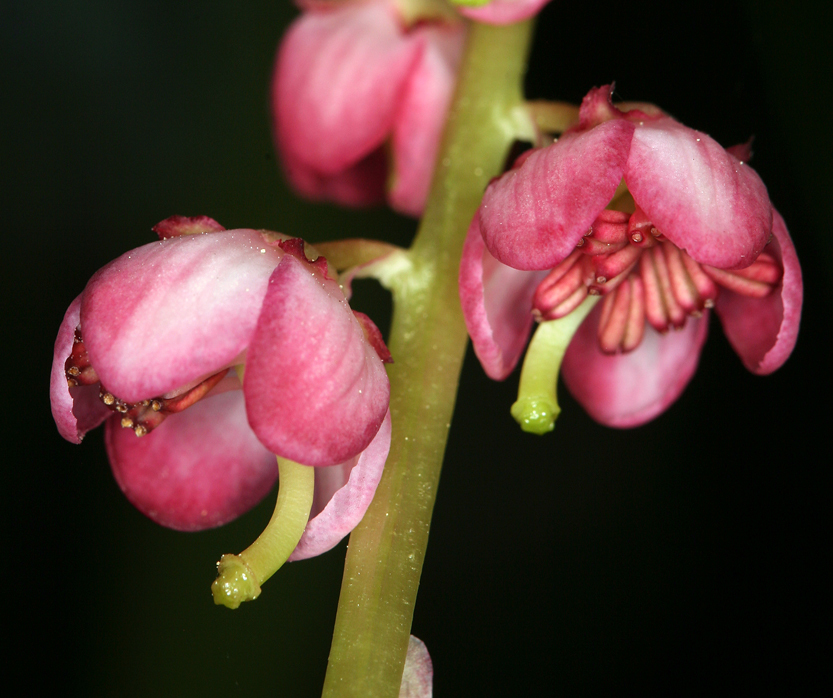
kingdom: Plantae
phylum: Tracheophyta
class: Magnoliopsida
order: Ericales
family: Ericaceae
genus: Pyrola
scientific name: Pyrola asarifolia
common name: Bog wintergreen
